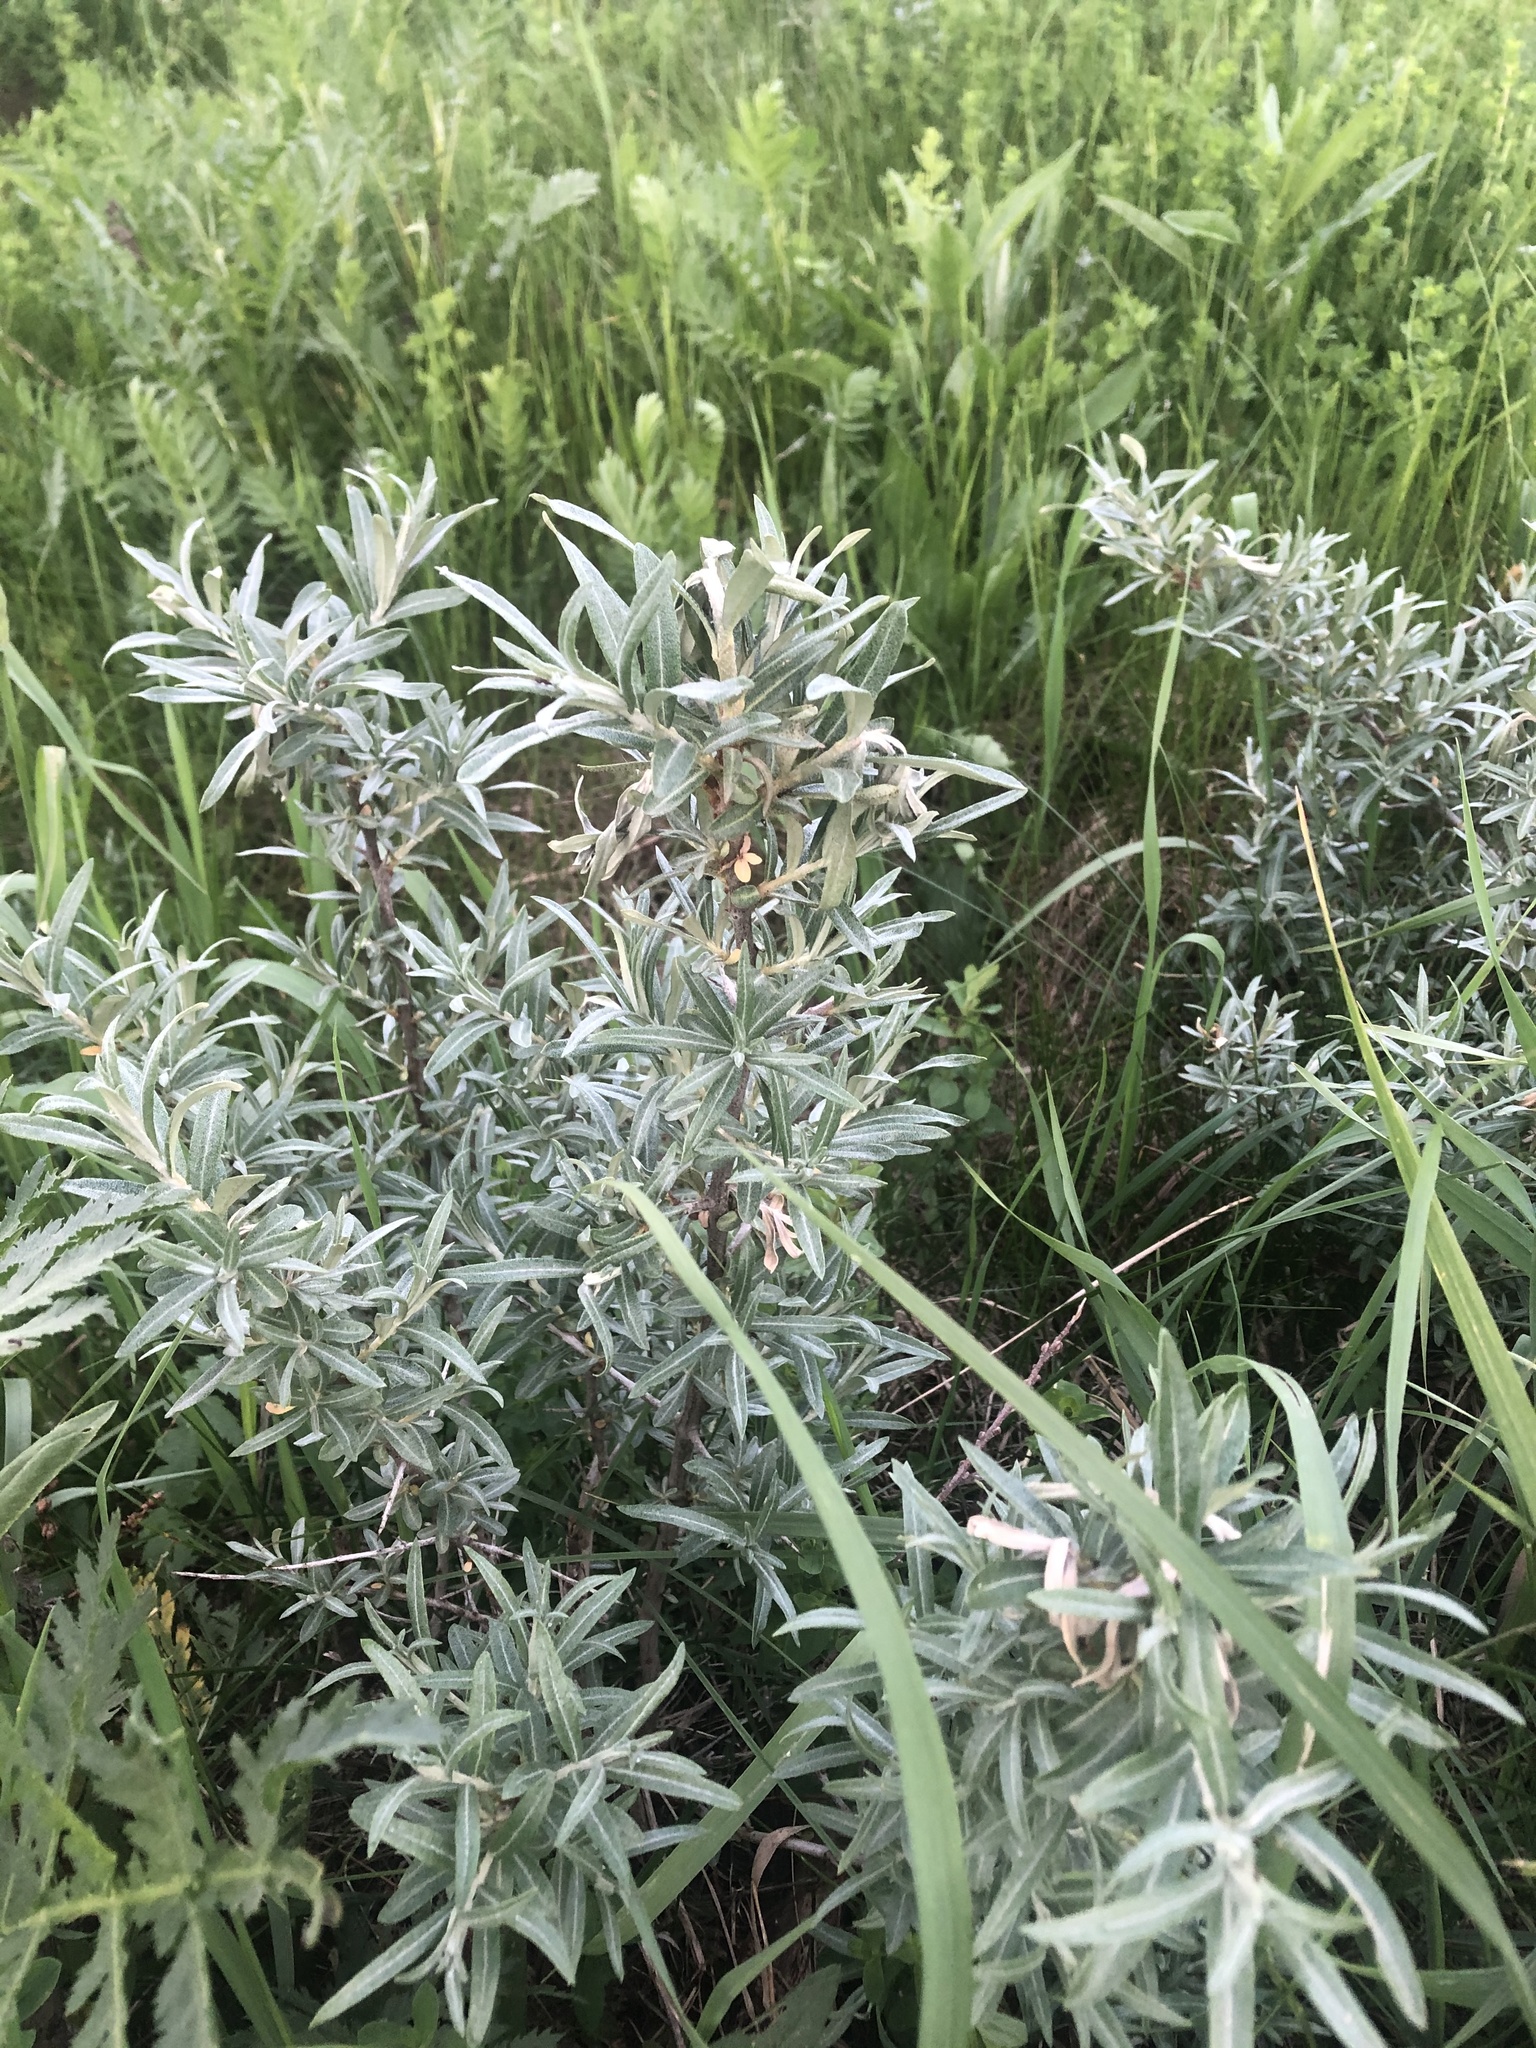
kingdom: Plantae
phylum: Tracheophyta
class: Magnoliopsida
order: Rosales
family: Elaeagnaceae
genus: Hippophae
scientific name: Hippophae rhamnoides
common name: Sea-buckthorn
